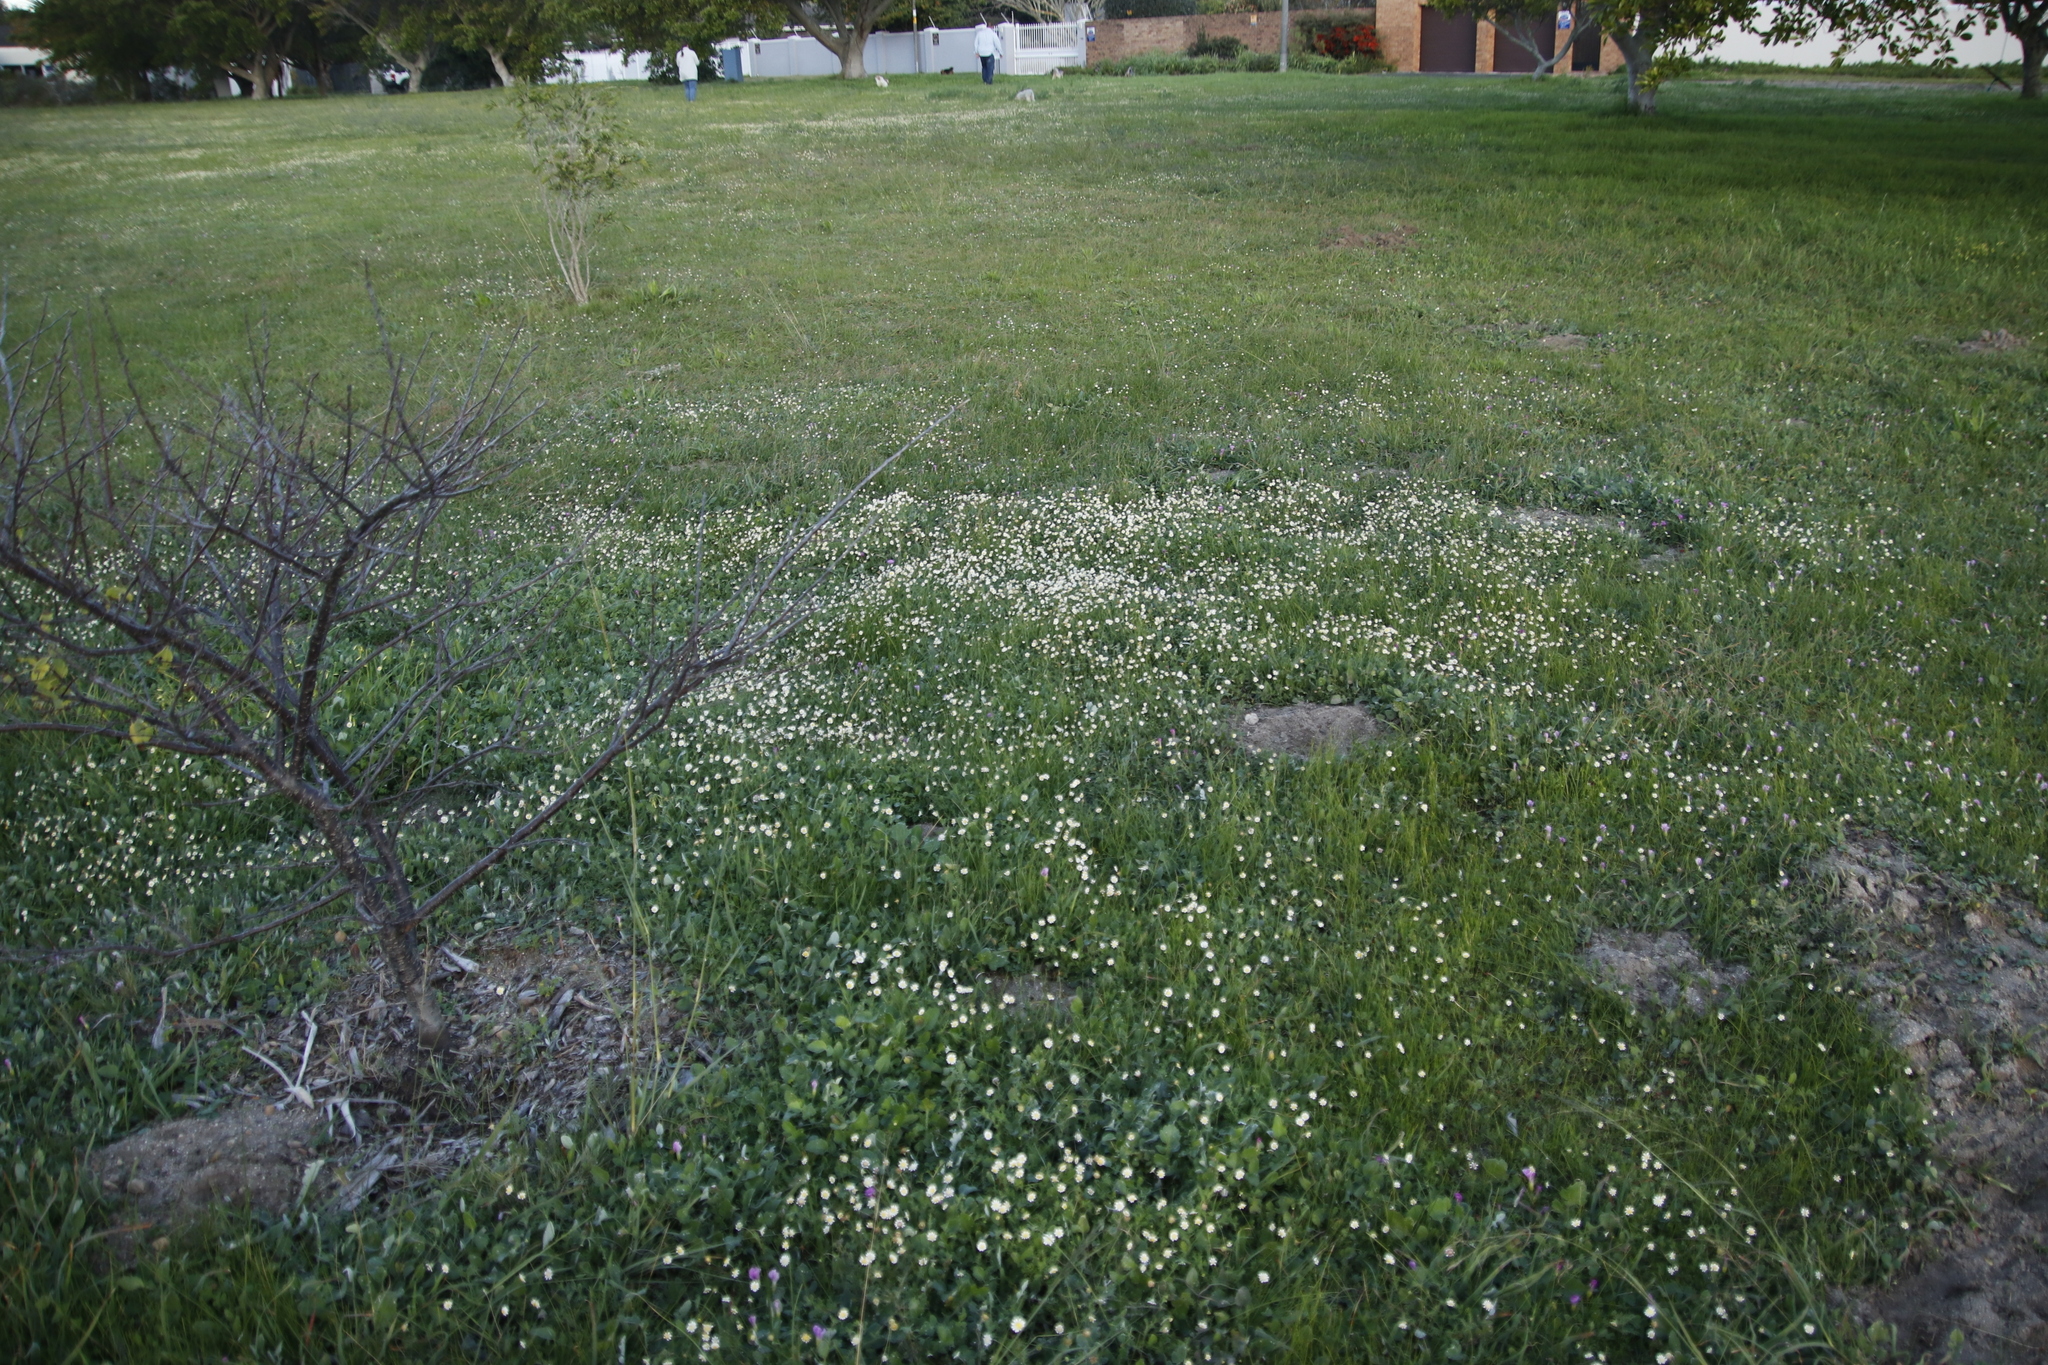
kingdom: Plantae
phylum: Tracheophyta
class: Magnoliopsida
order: Asterales
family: Asteraceae
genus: Cotula
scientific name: Cotula turbinata
